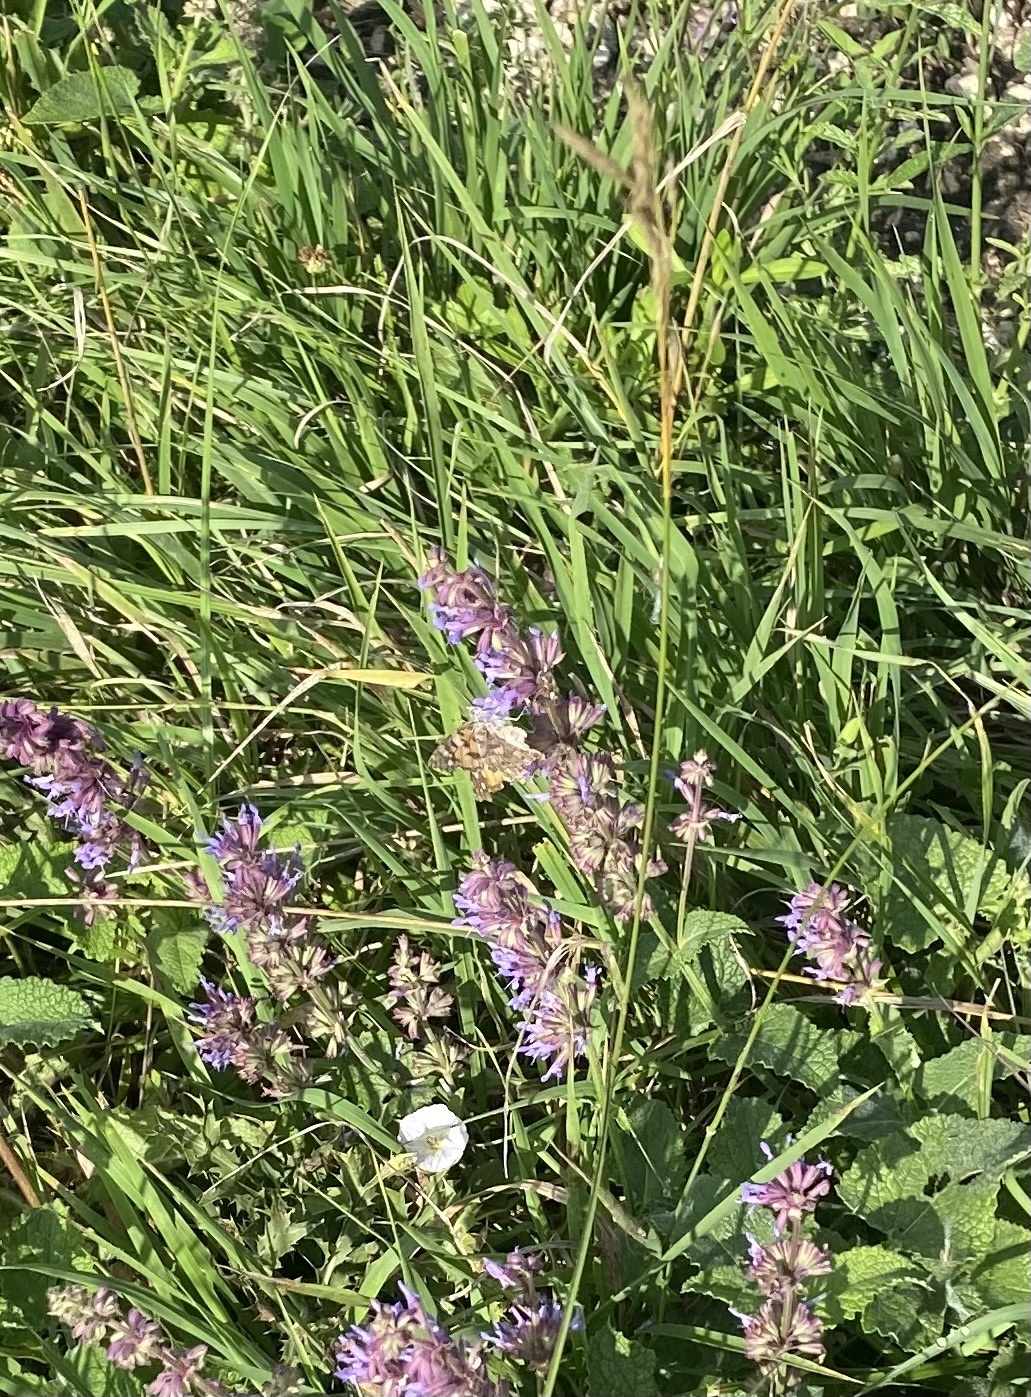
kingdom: Animalia
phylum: Arthropoda
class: Insecta
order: Lepidoptera
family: Nymphalidae
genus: Vanessa
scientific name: Vanessa cardui
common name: Painted lady
